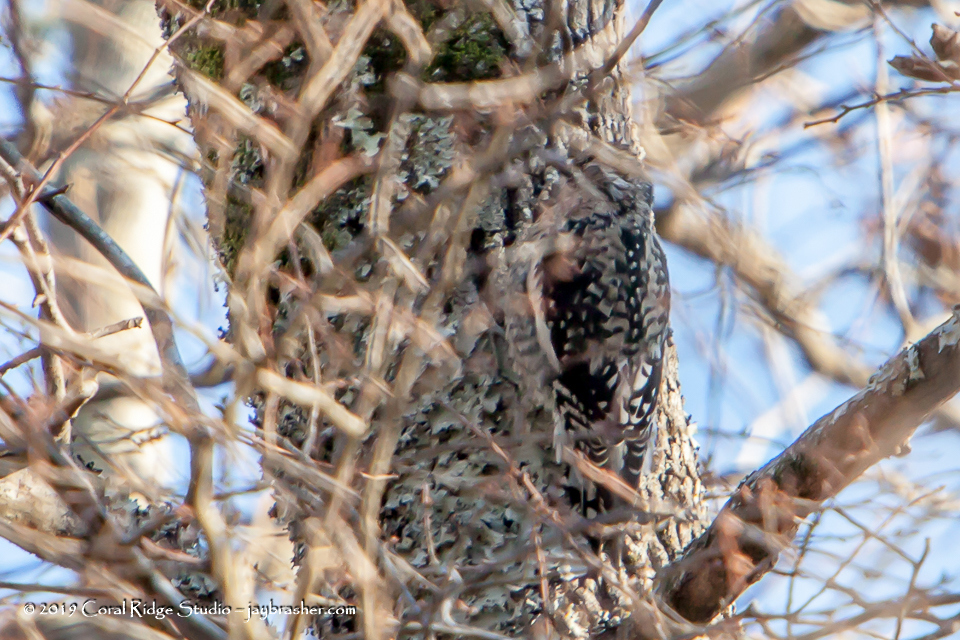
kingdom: Animalia
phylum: Chordata
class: Aves
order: Piciformes
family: Picidae
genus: Sphyrapicus
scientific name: Sphyrapicus varius
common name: Yellow-bellied sapsucker
